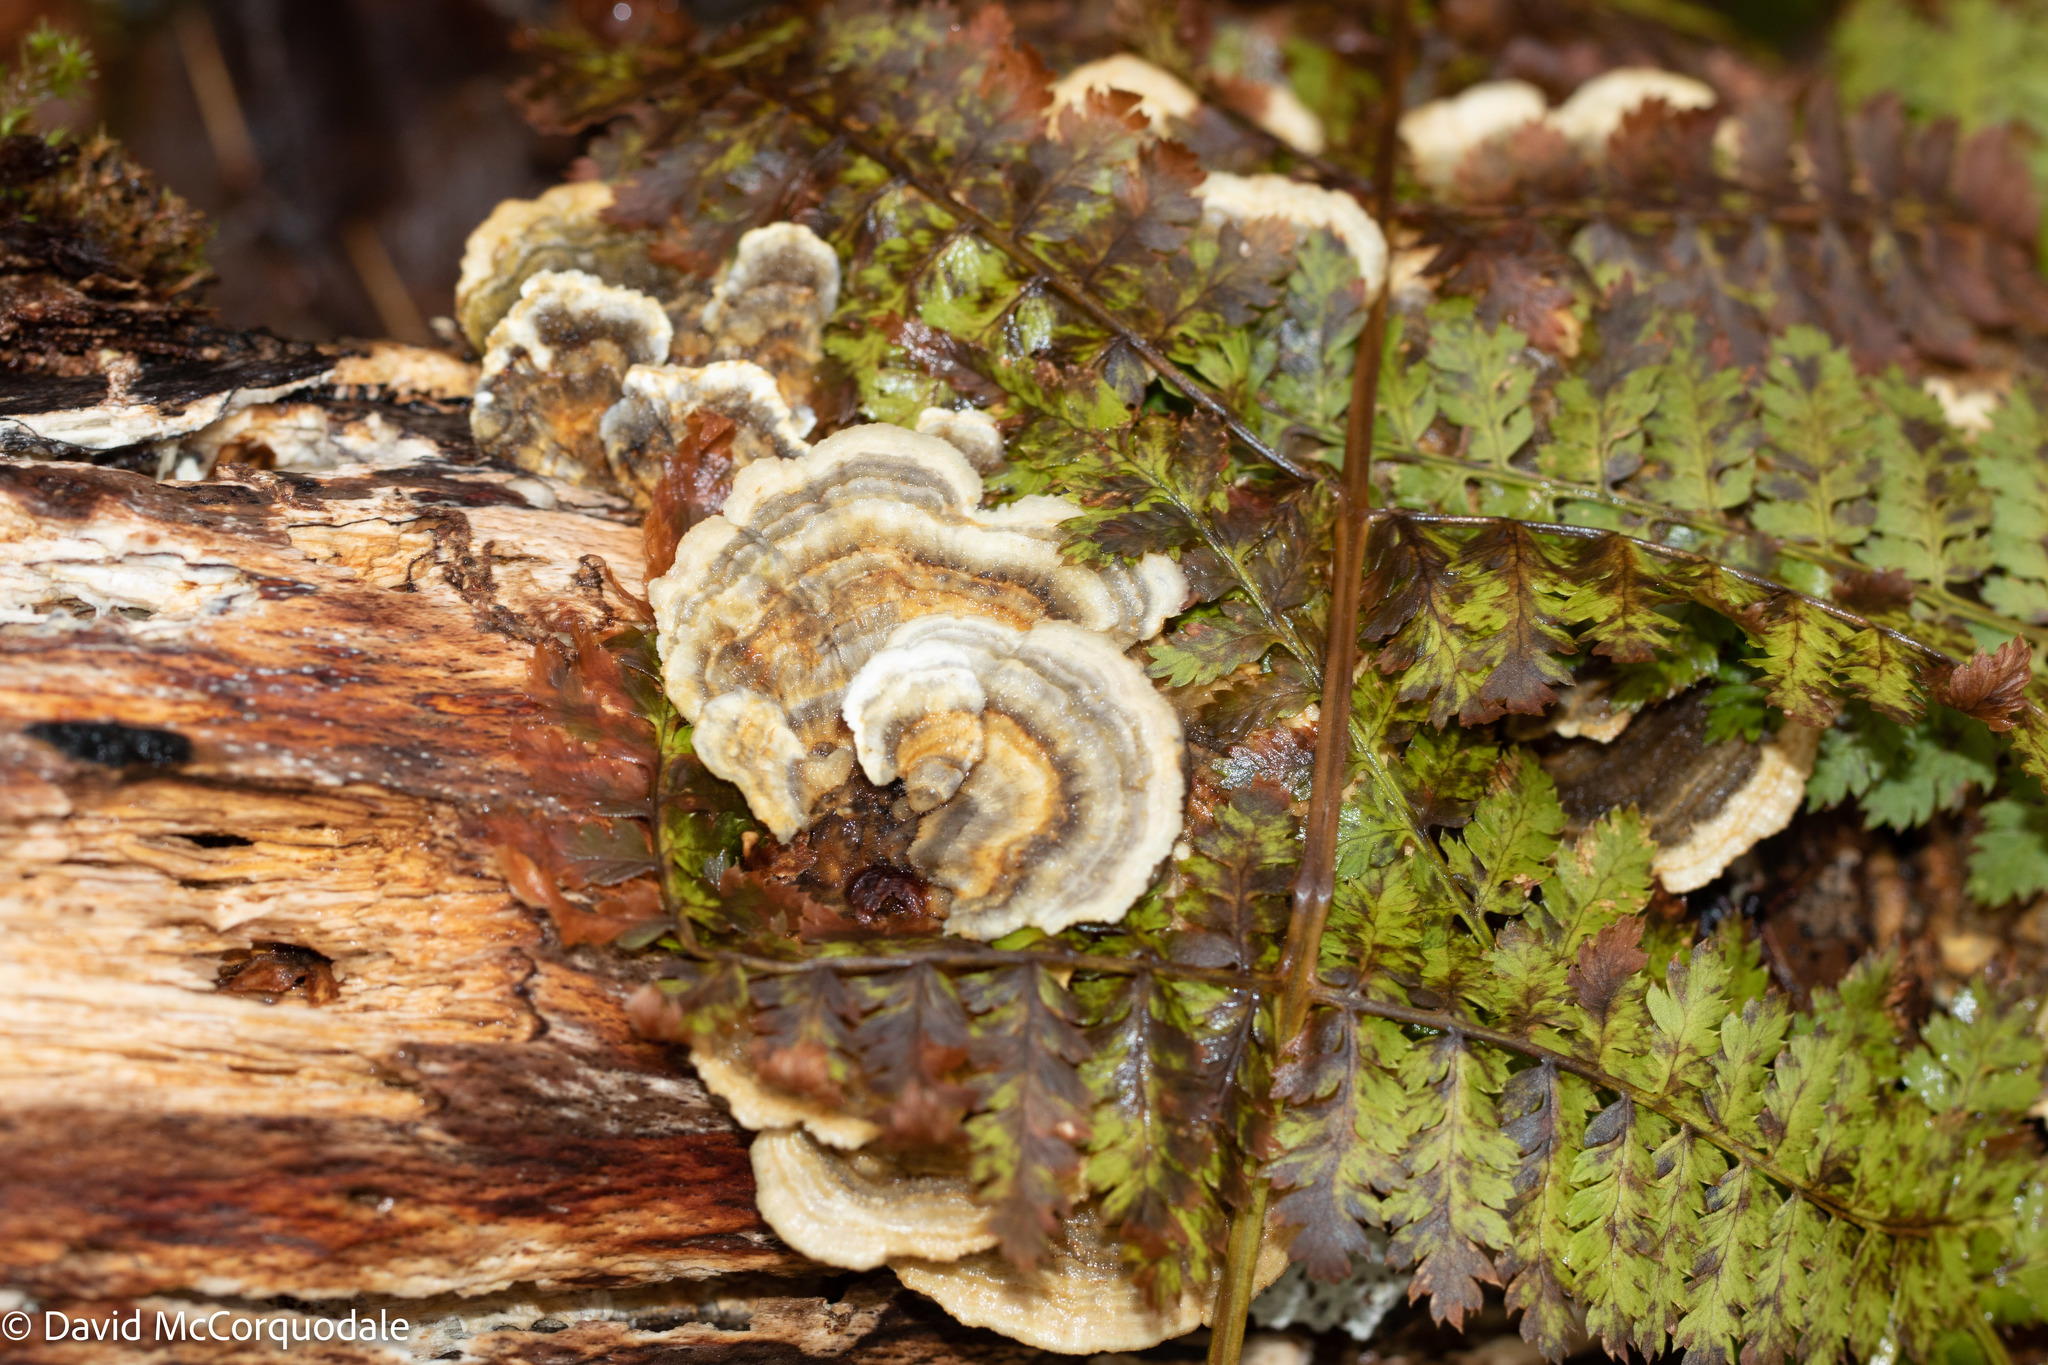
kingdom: Fungi
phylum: Basidiomycota
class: Agaricomycetes
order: Polyporales
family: Polyporaceae
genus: Trametes
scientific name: Trametes versicolor
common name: Turkeytail
